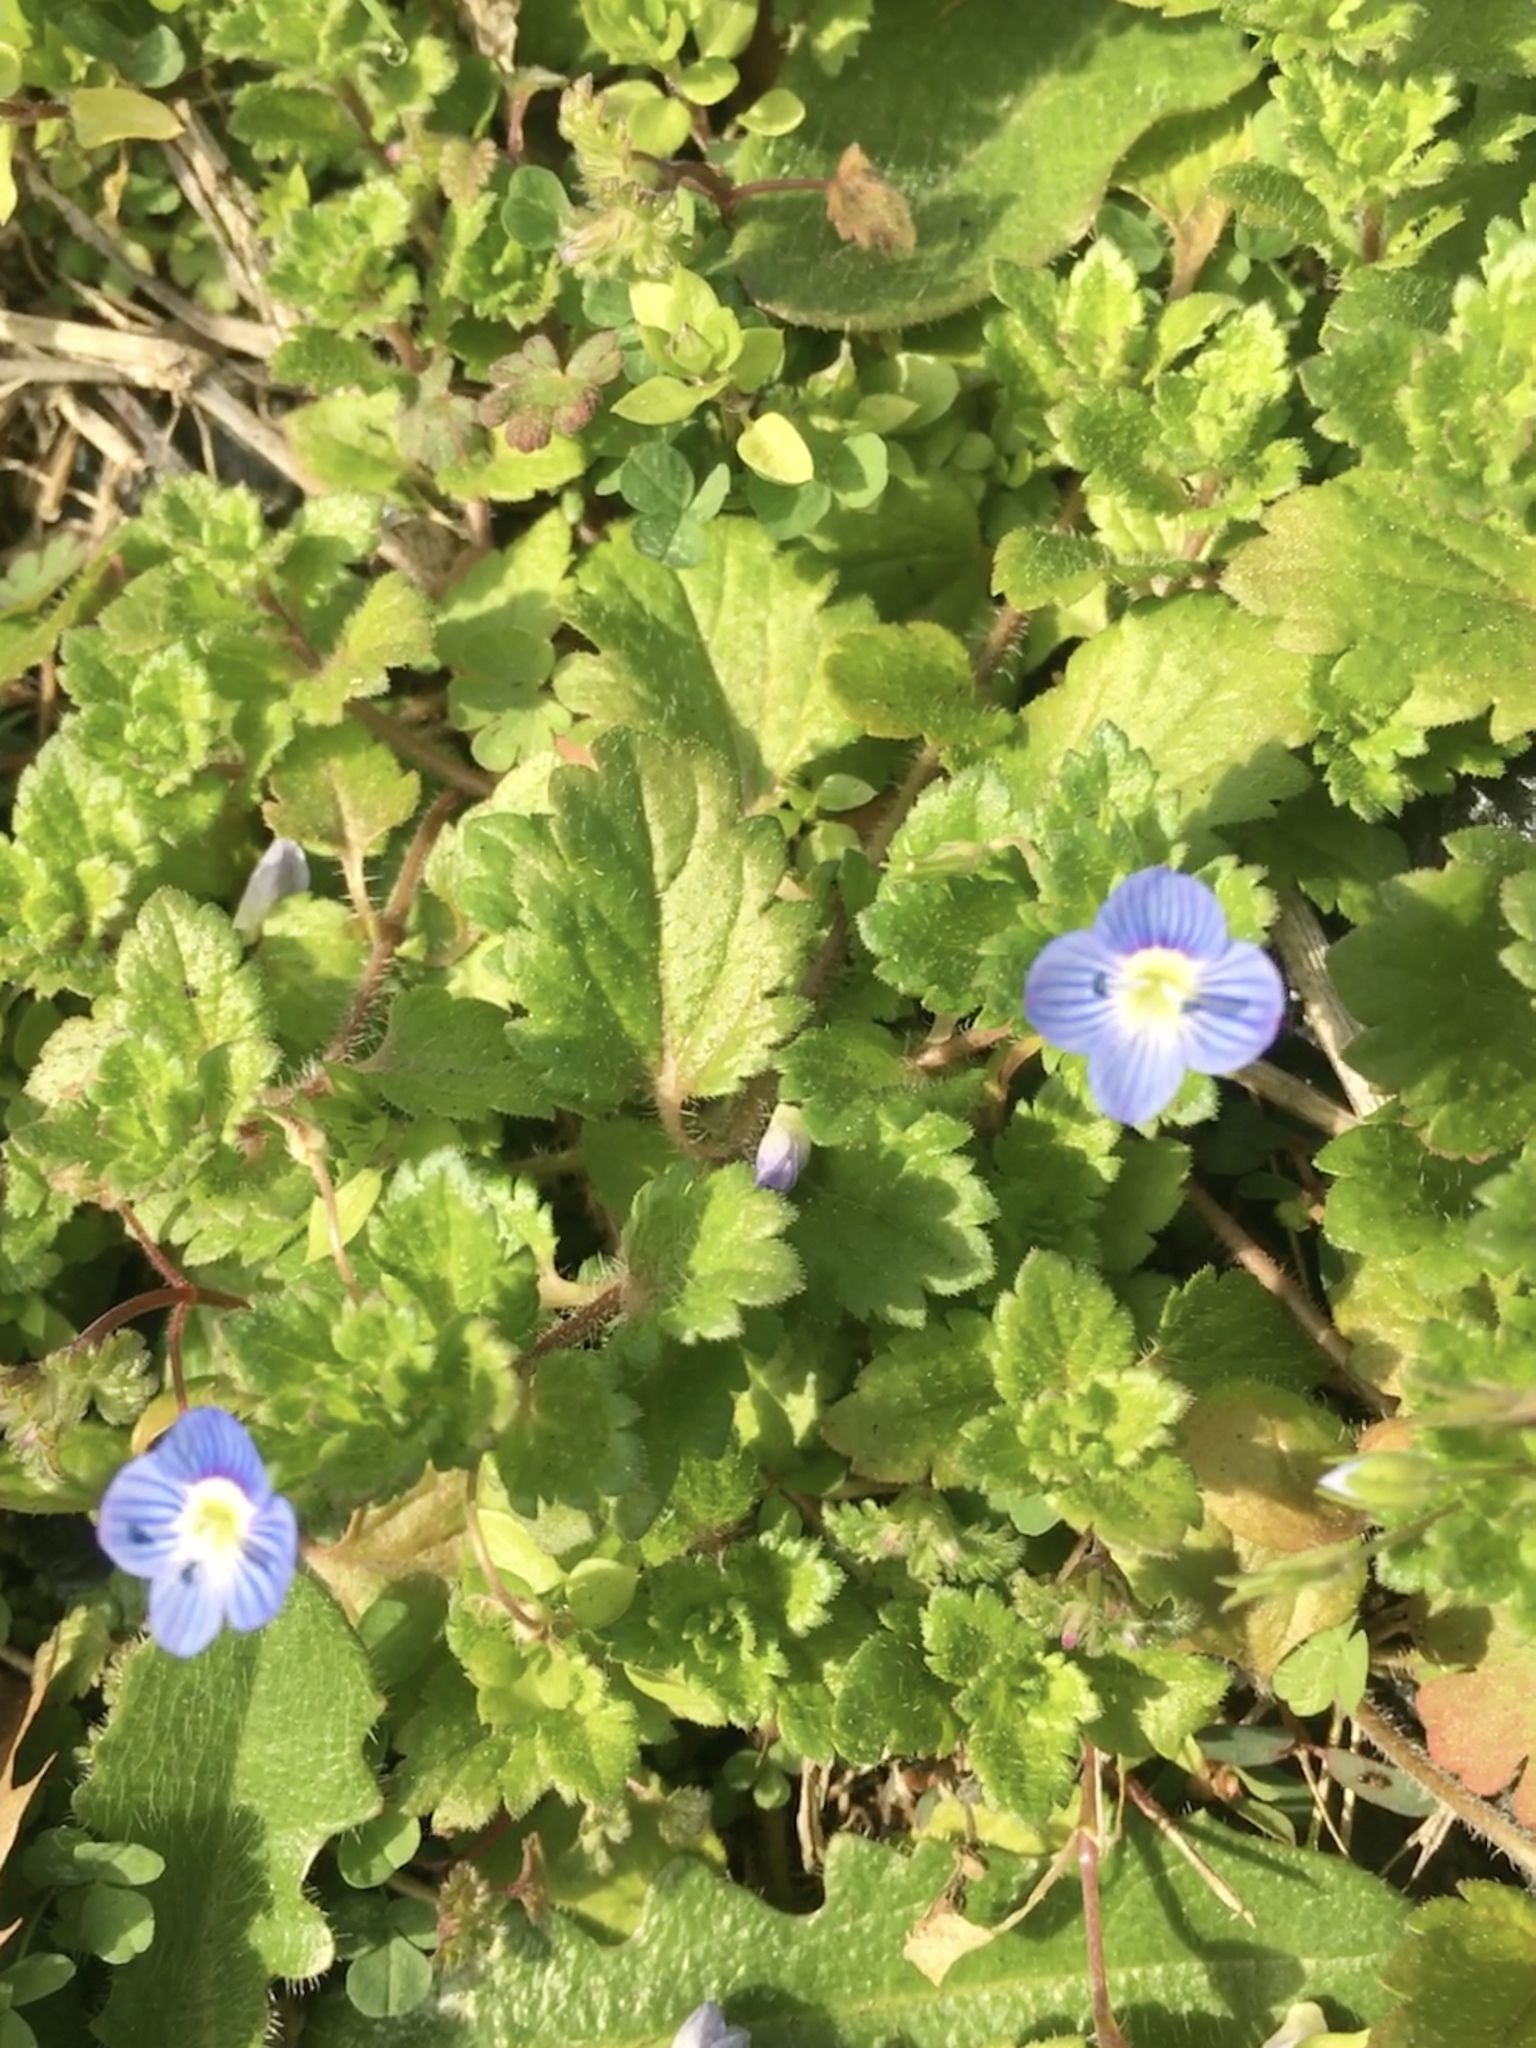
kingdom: Plantae
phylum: Tracheophyta
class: Magnoliopsida
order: Lamiales
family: Plantaginaceae
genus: Veronica
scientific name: Veronica persica
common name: Common field-speedwell
